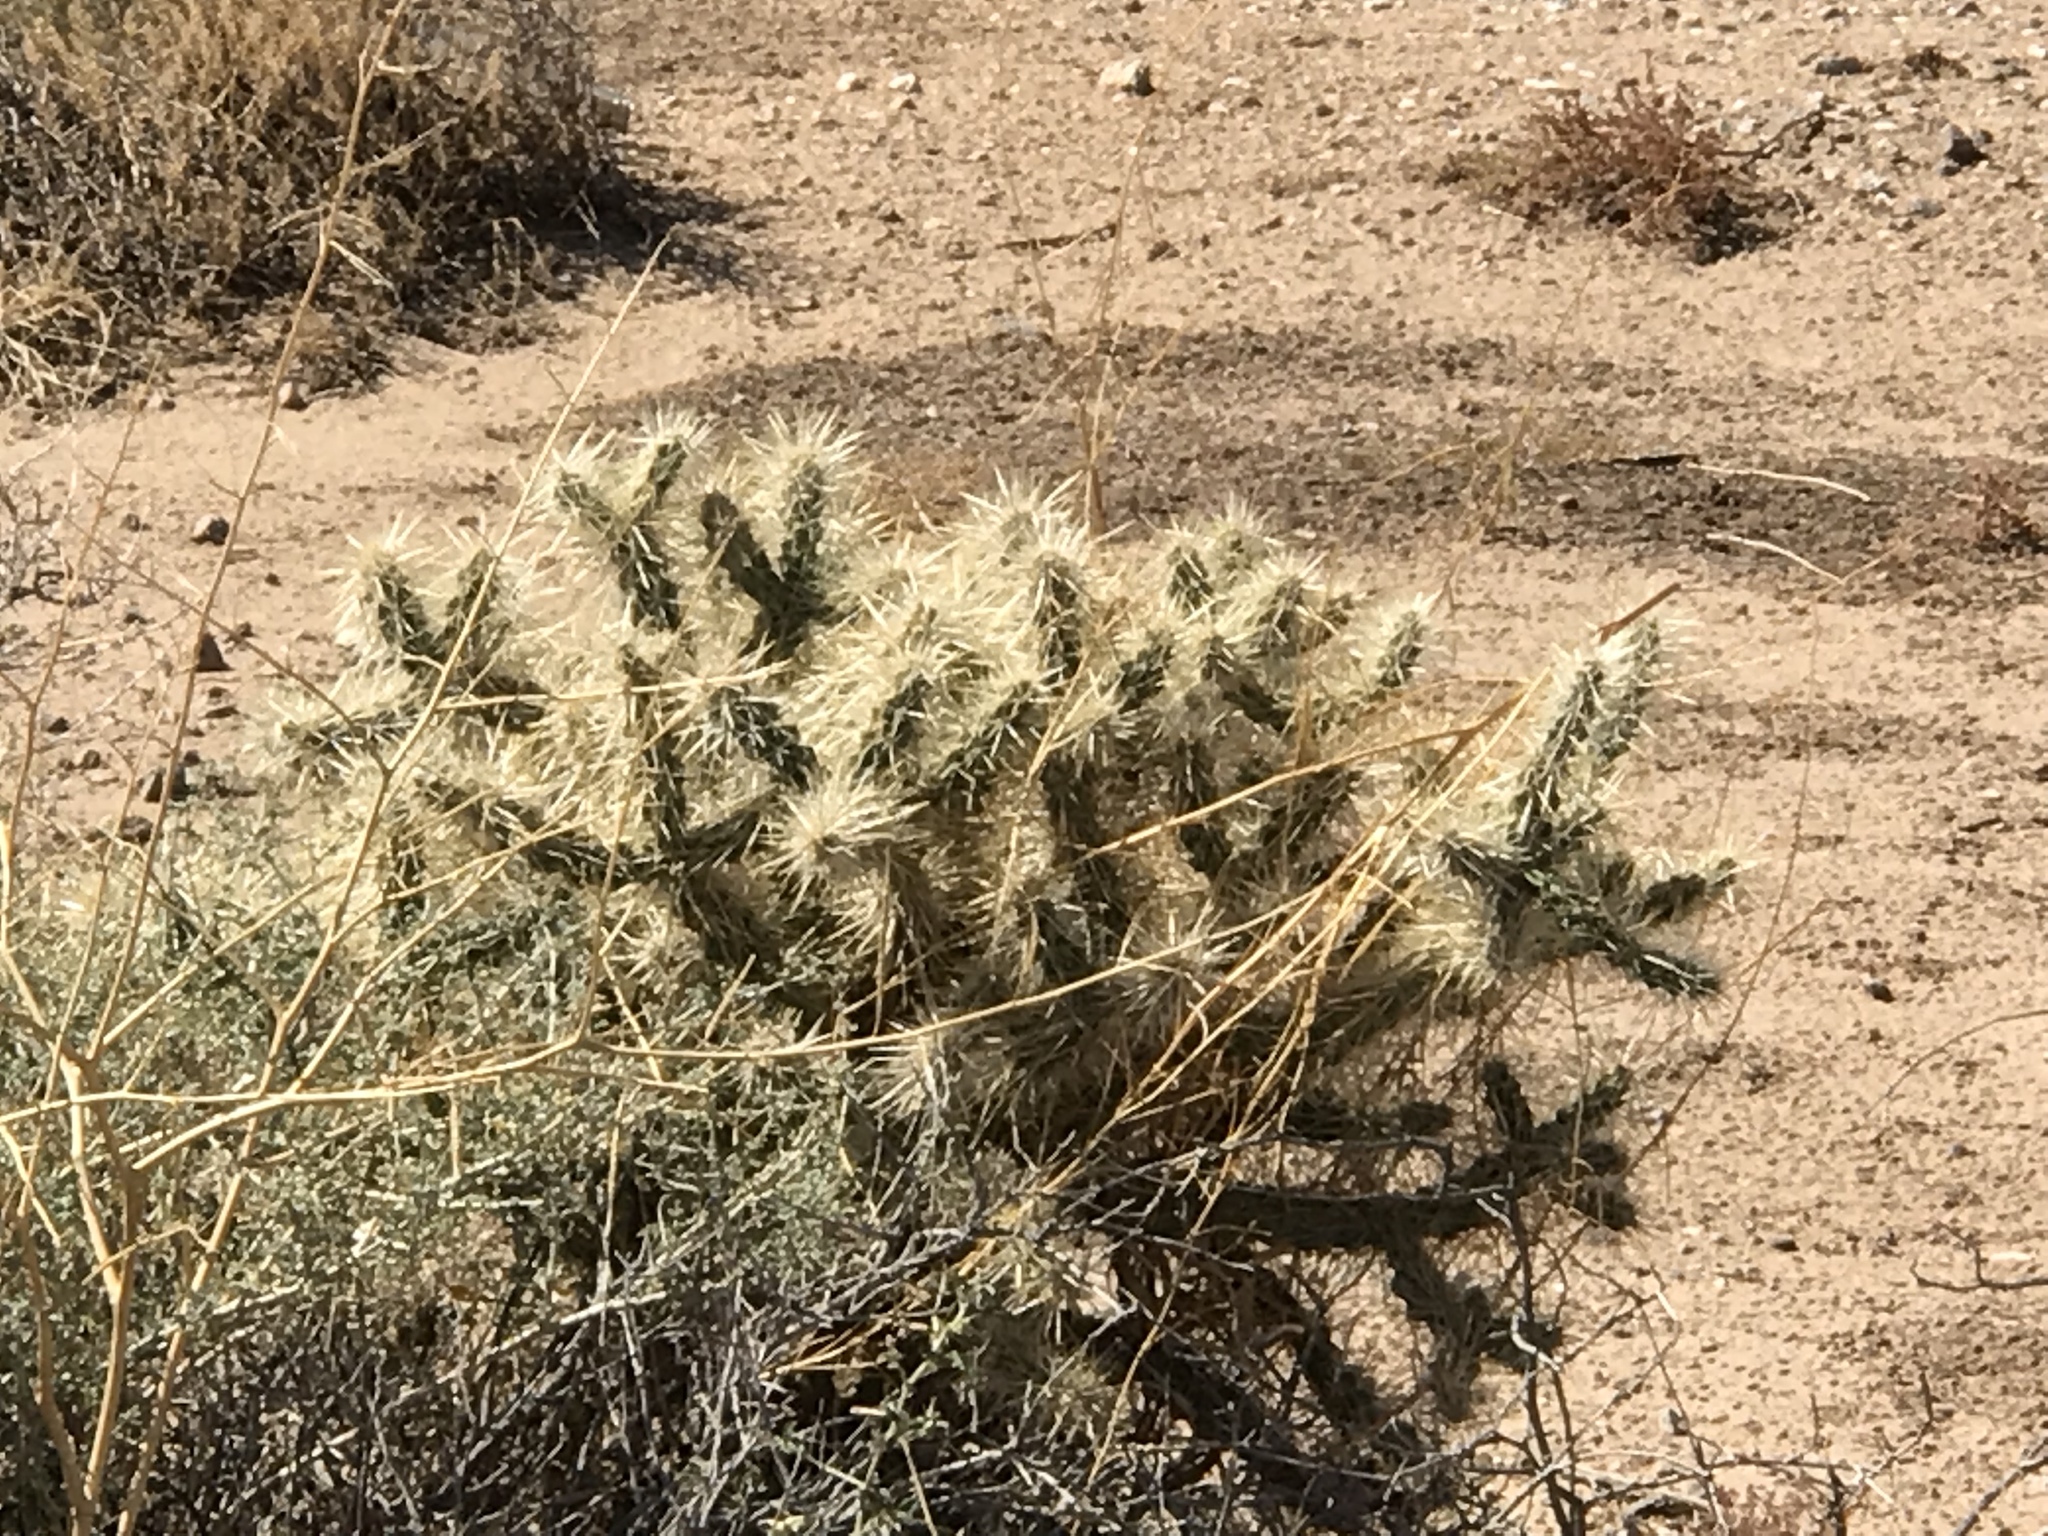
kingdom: Plantae
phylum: Tracheophyta
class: Magnoliopsida
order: Caryophyllales
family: Cactaceae
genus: Cylindropuntia
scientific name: Cylindropuntia echinocarpa
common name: Ground cholla
